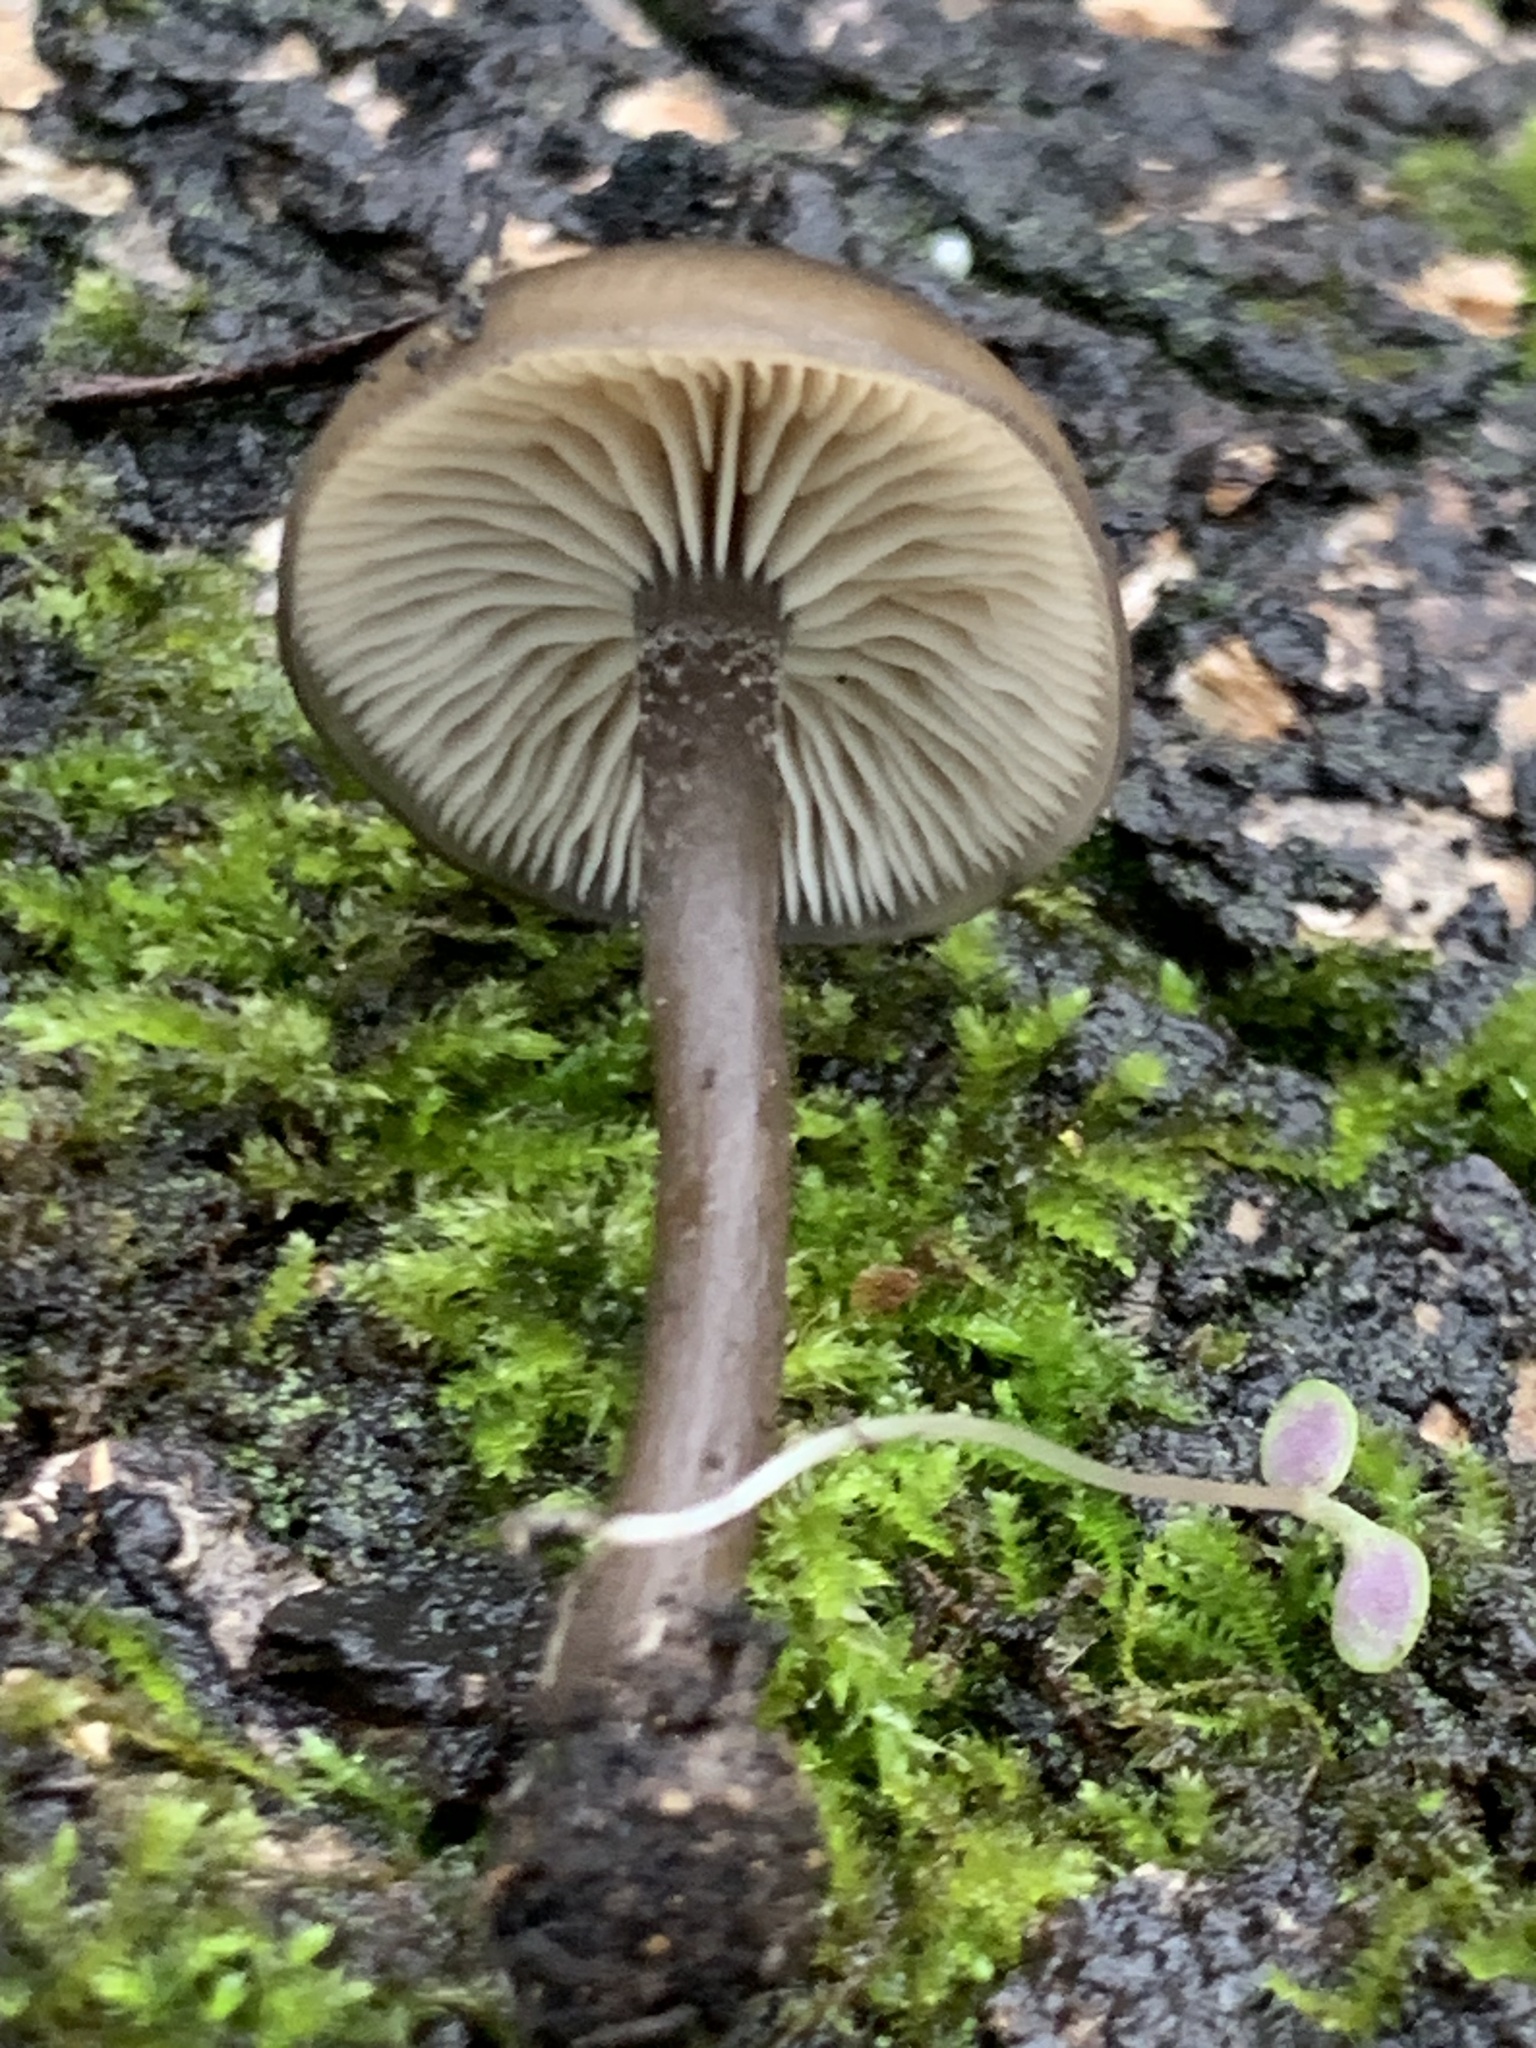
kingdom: Fungi
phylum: Basidiomycota
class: Agaricomycetes
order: Agaricales
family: Tricholomataceae
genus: Myxomphalia
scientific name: Myxomphalia maura
